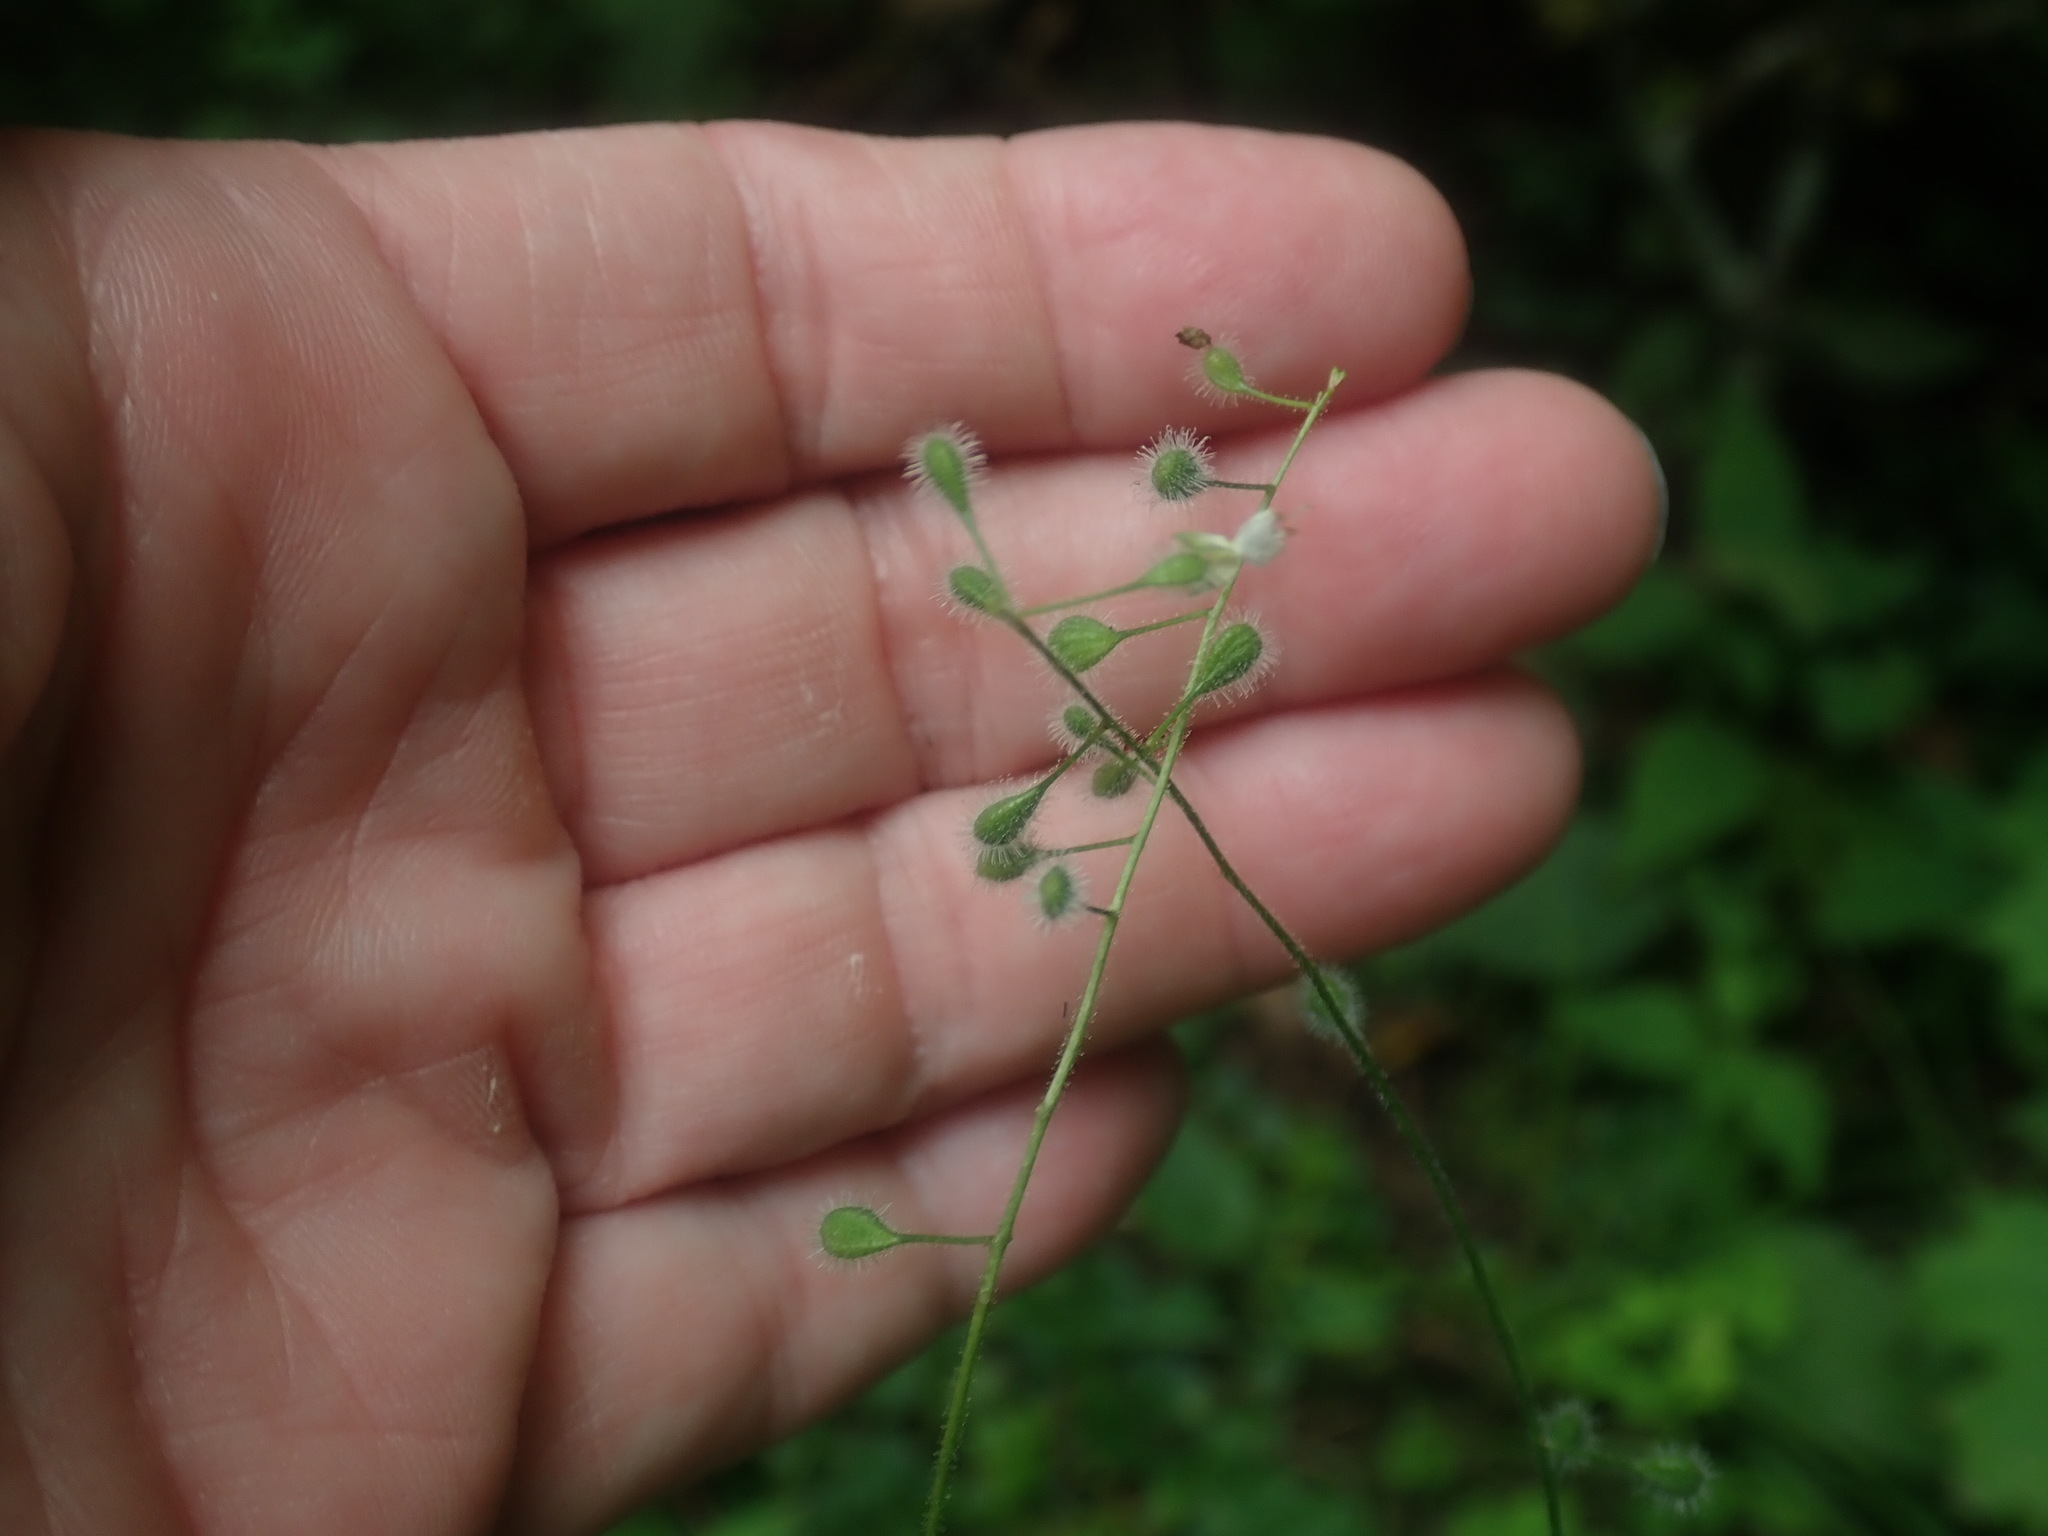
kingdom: Plantae
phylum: Tracheophyta
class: Magnoliopsida
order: Myrtales
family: Onagraceae
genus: Circaea
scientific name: Circaea canadensis
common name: Broad-leaved enchanter's nightshade
